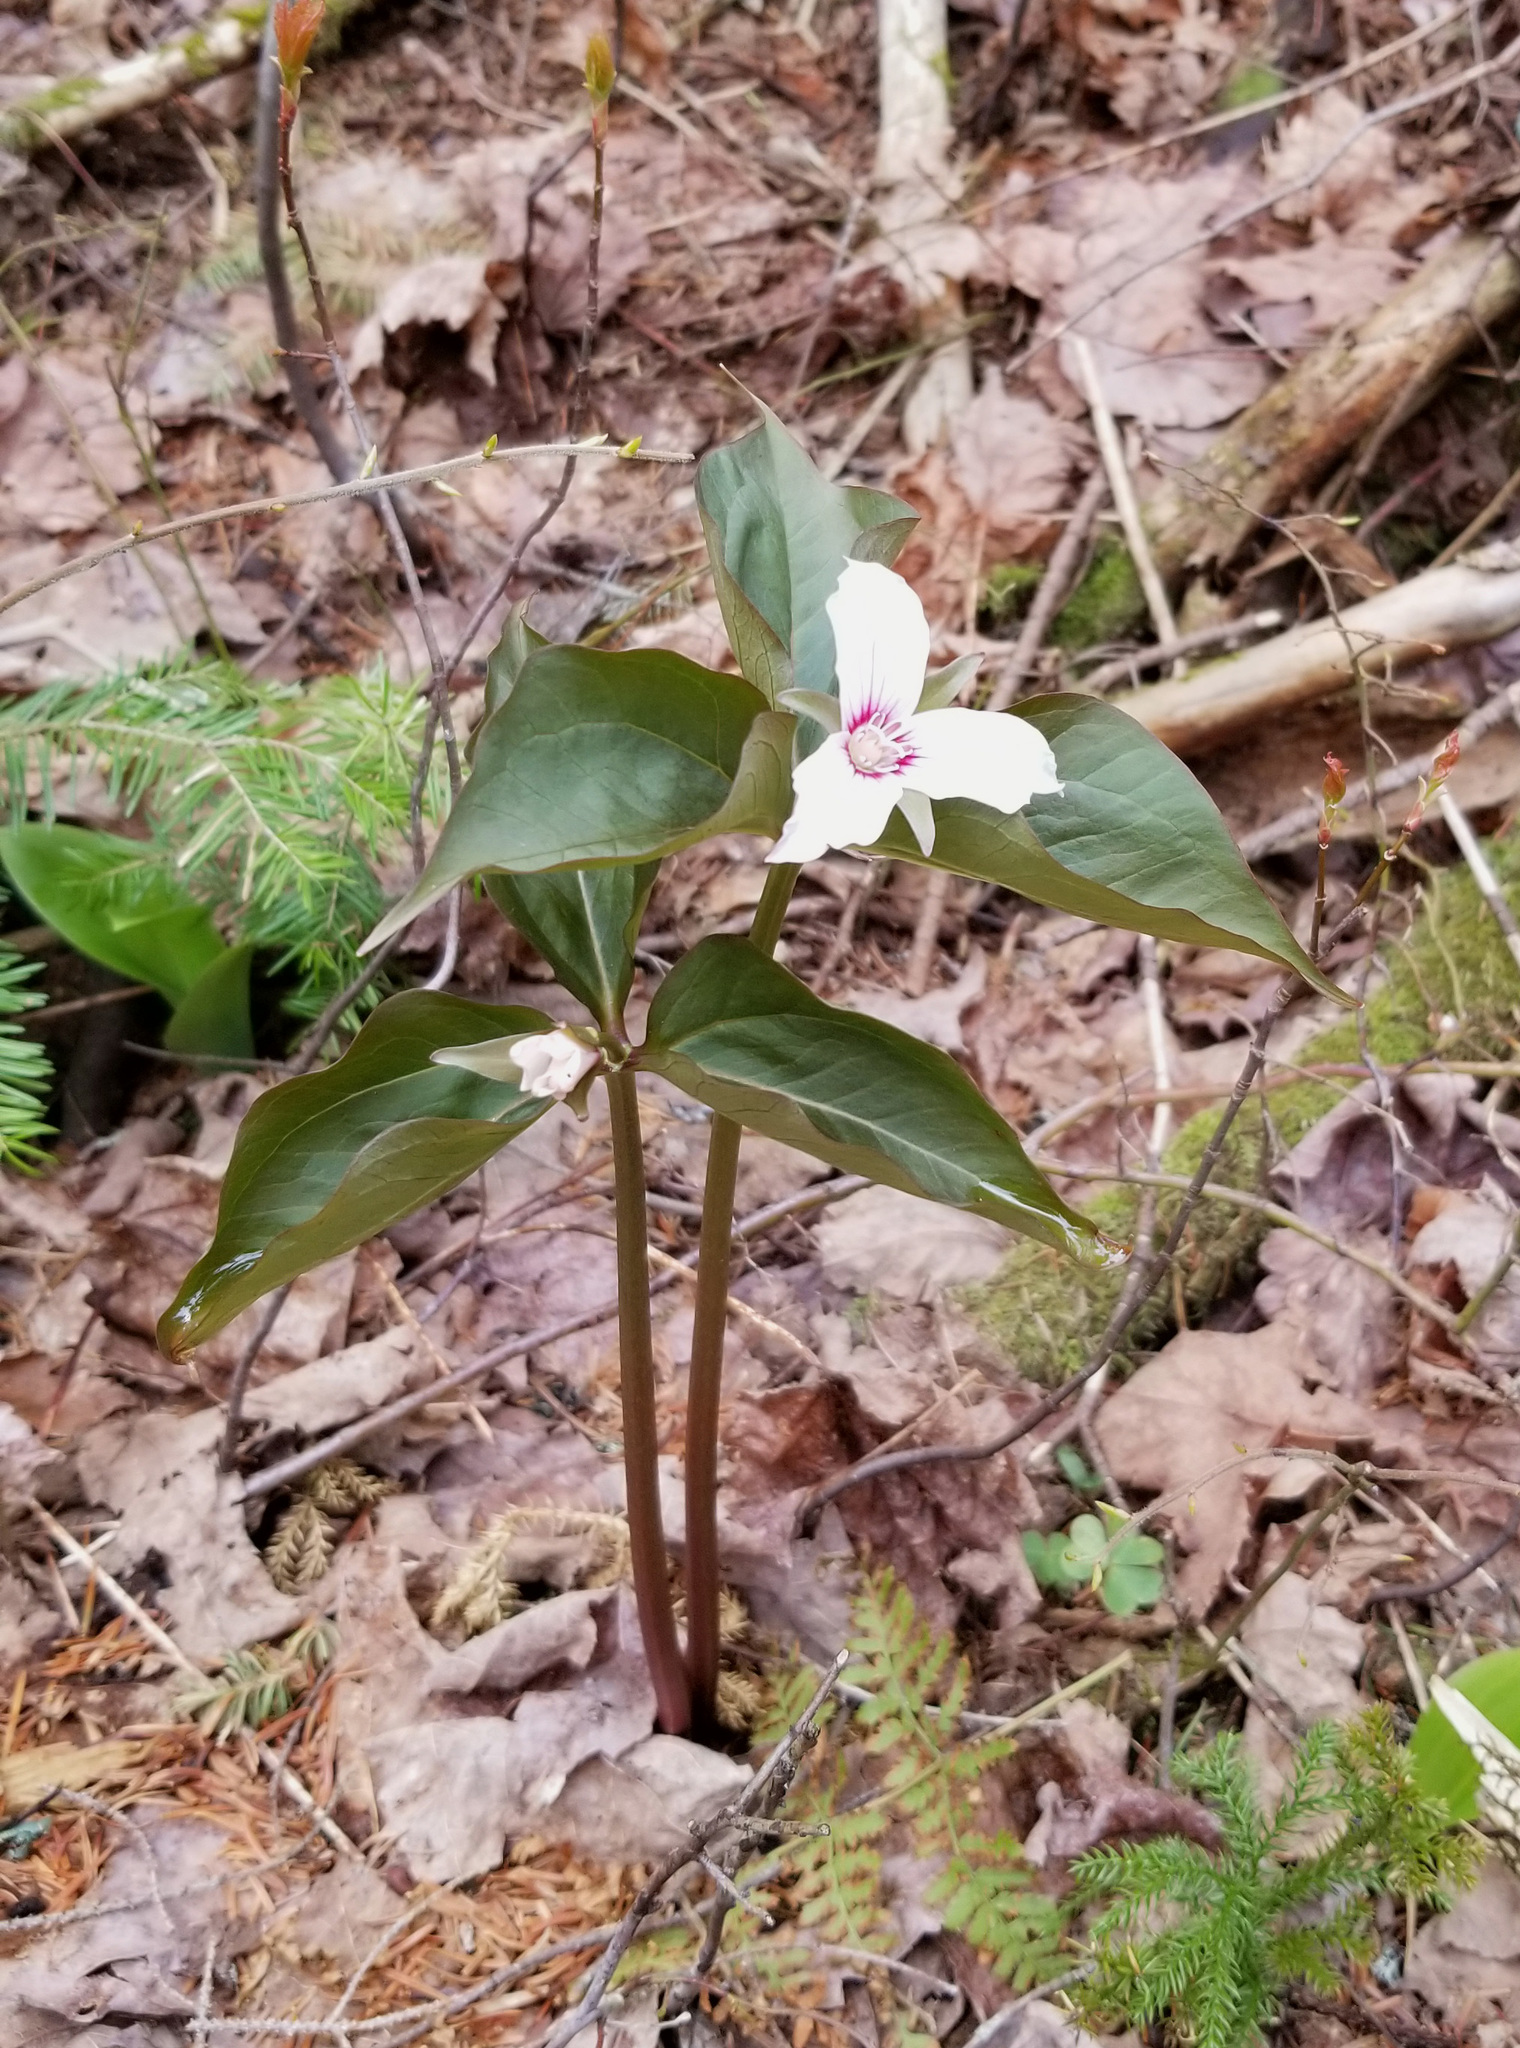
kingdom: Plantae
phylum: Tracheophyta
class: Liliopsida
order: Liliales
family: Melanthiaceae
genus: Trillium
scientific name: Trillium undulatum
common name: Paint trillium
